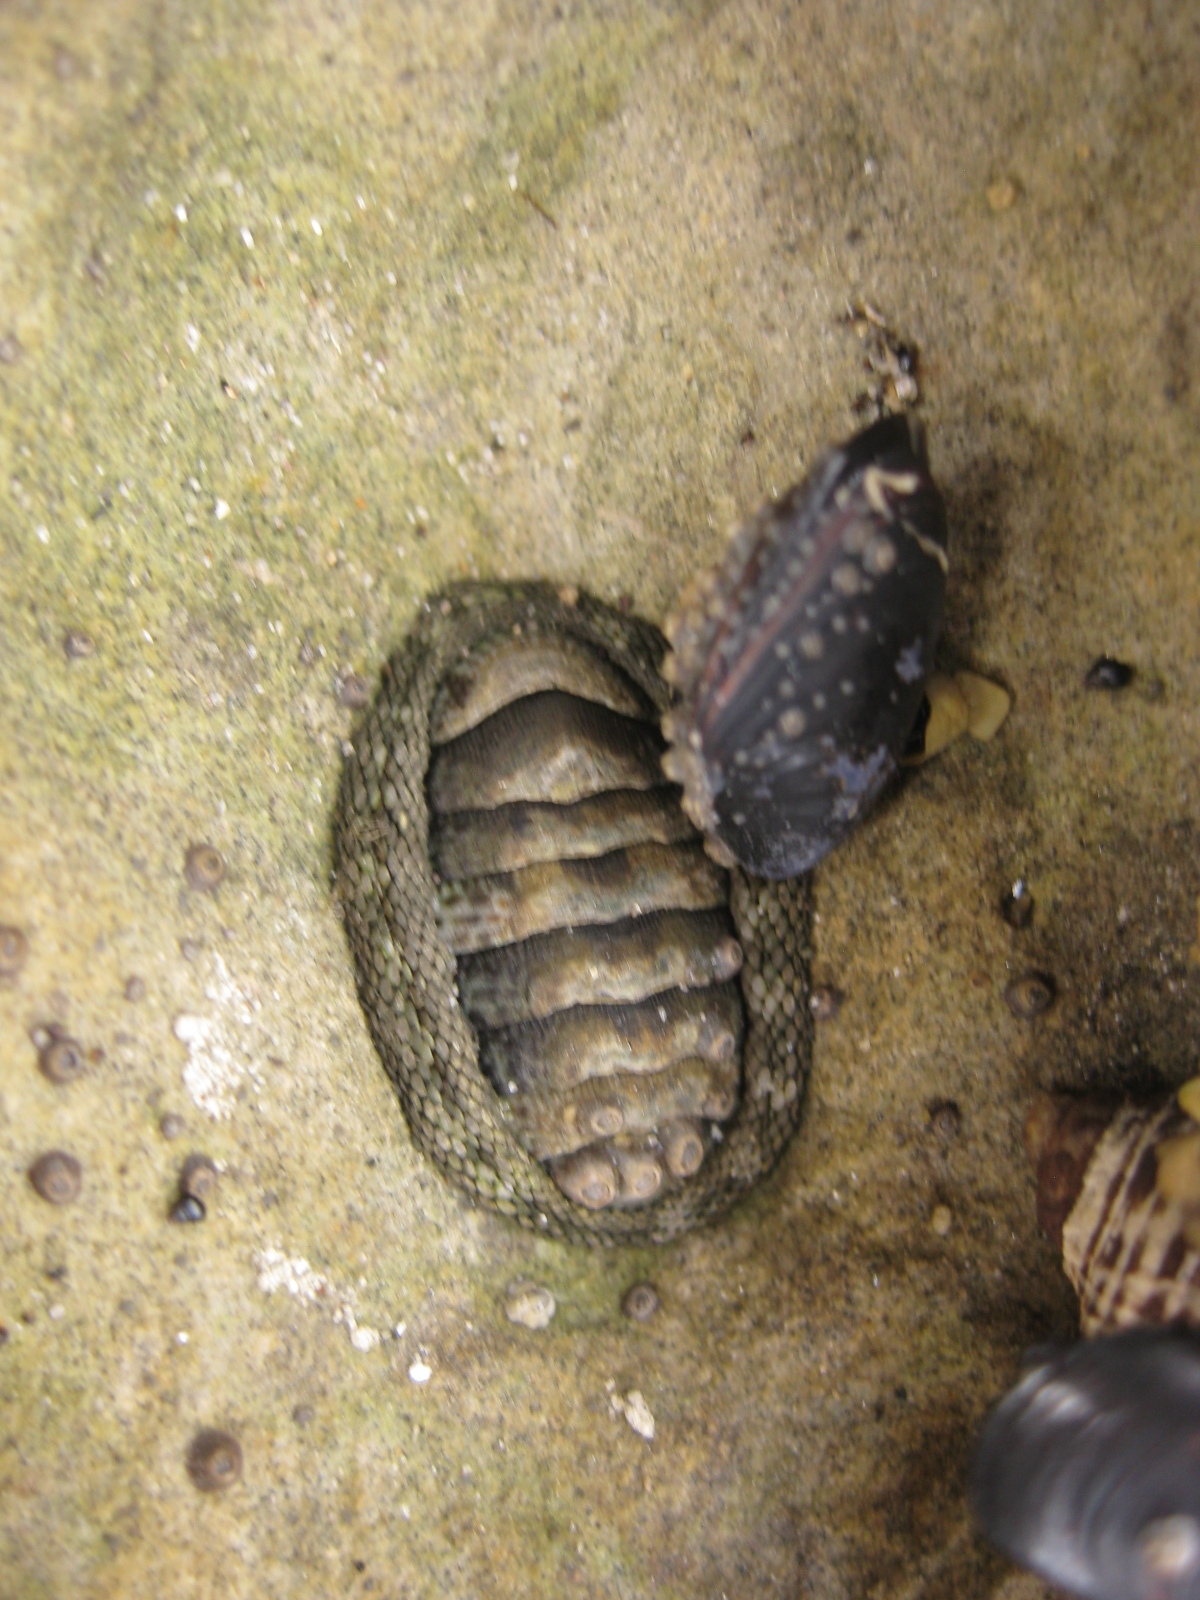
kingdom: Animalia
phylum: Mollusca
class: Polyplacophora
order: Chitonida
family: Chitonidae
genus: Sypharochiton
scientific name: Sypharochiton pelliserpentis
